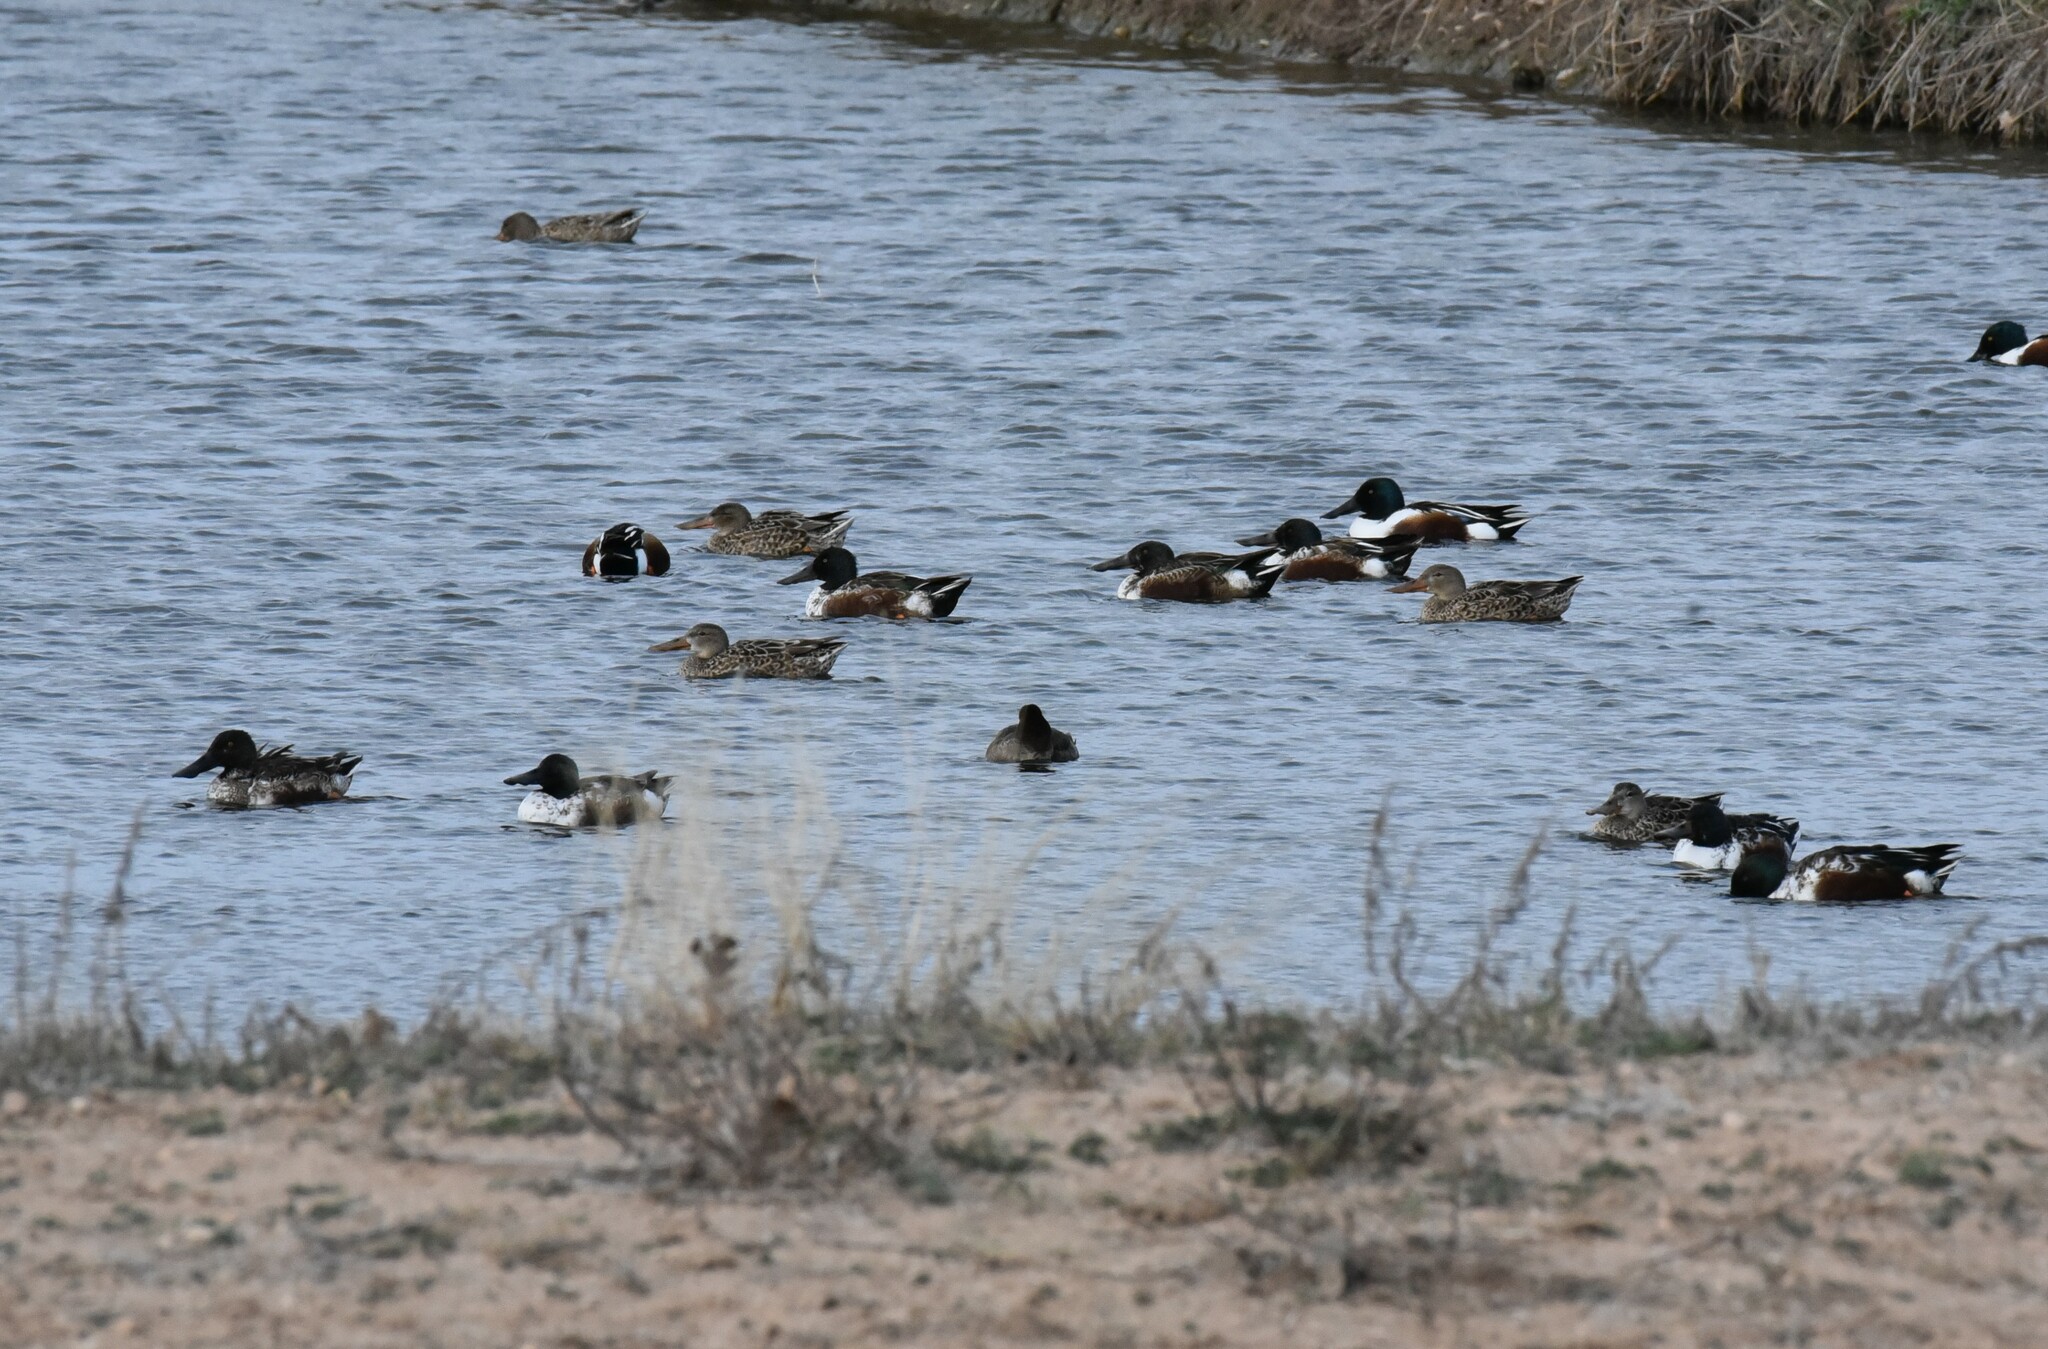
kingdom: Animalia
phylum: Chordata
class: Aves
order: Anseriformes
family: Anatidae
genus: Spatula
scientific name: Spatula clypeata
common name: Northern shoveler
